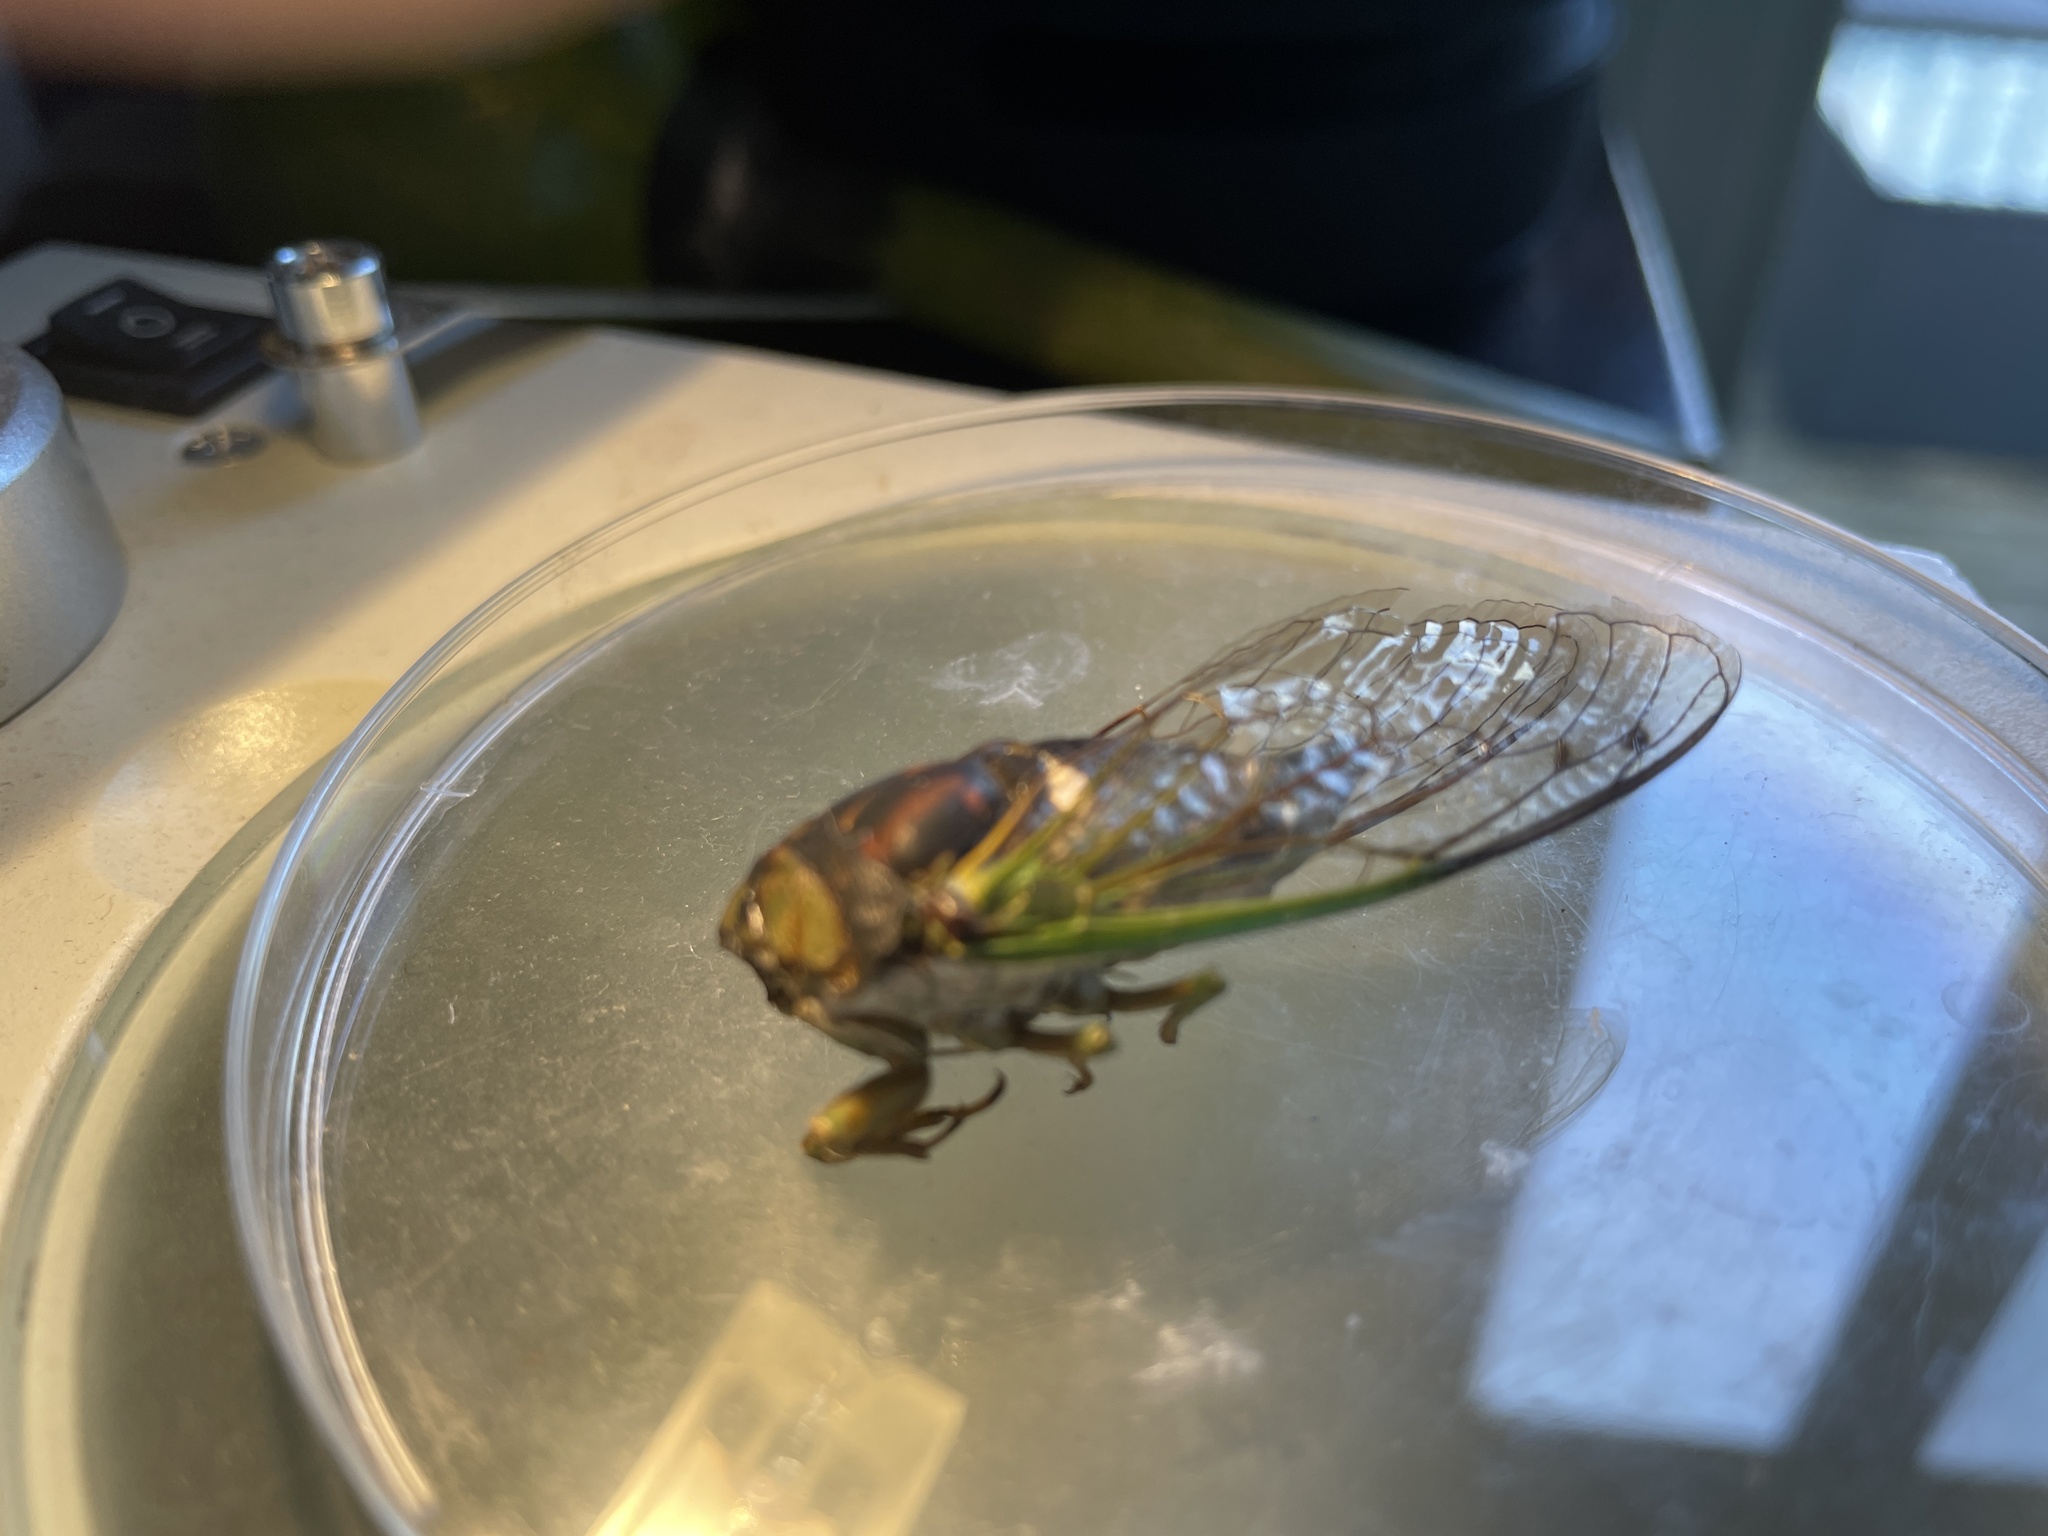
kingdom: Animalia
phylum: Arthropoda
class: Insecta
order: Hemiptera
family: Cicadidae
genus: Neotibicen
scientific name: Neotibicen tibicen
